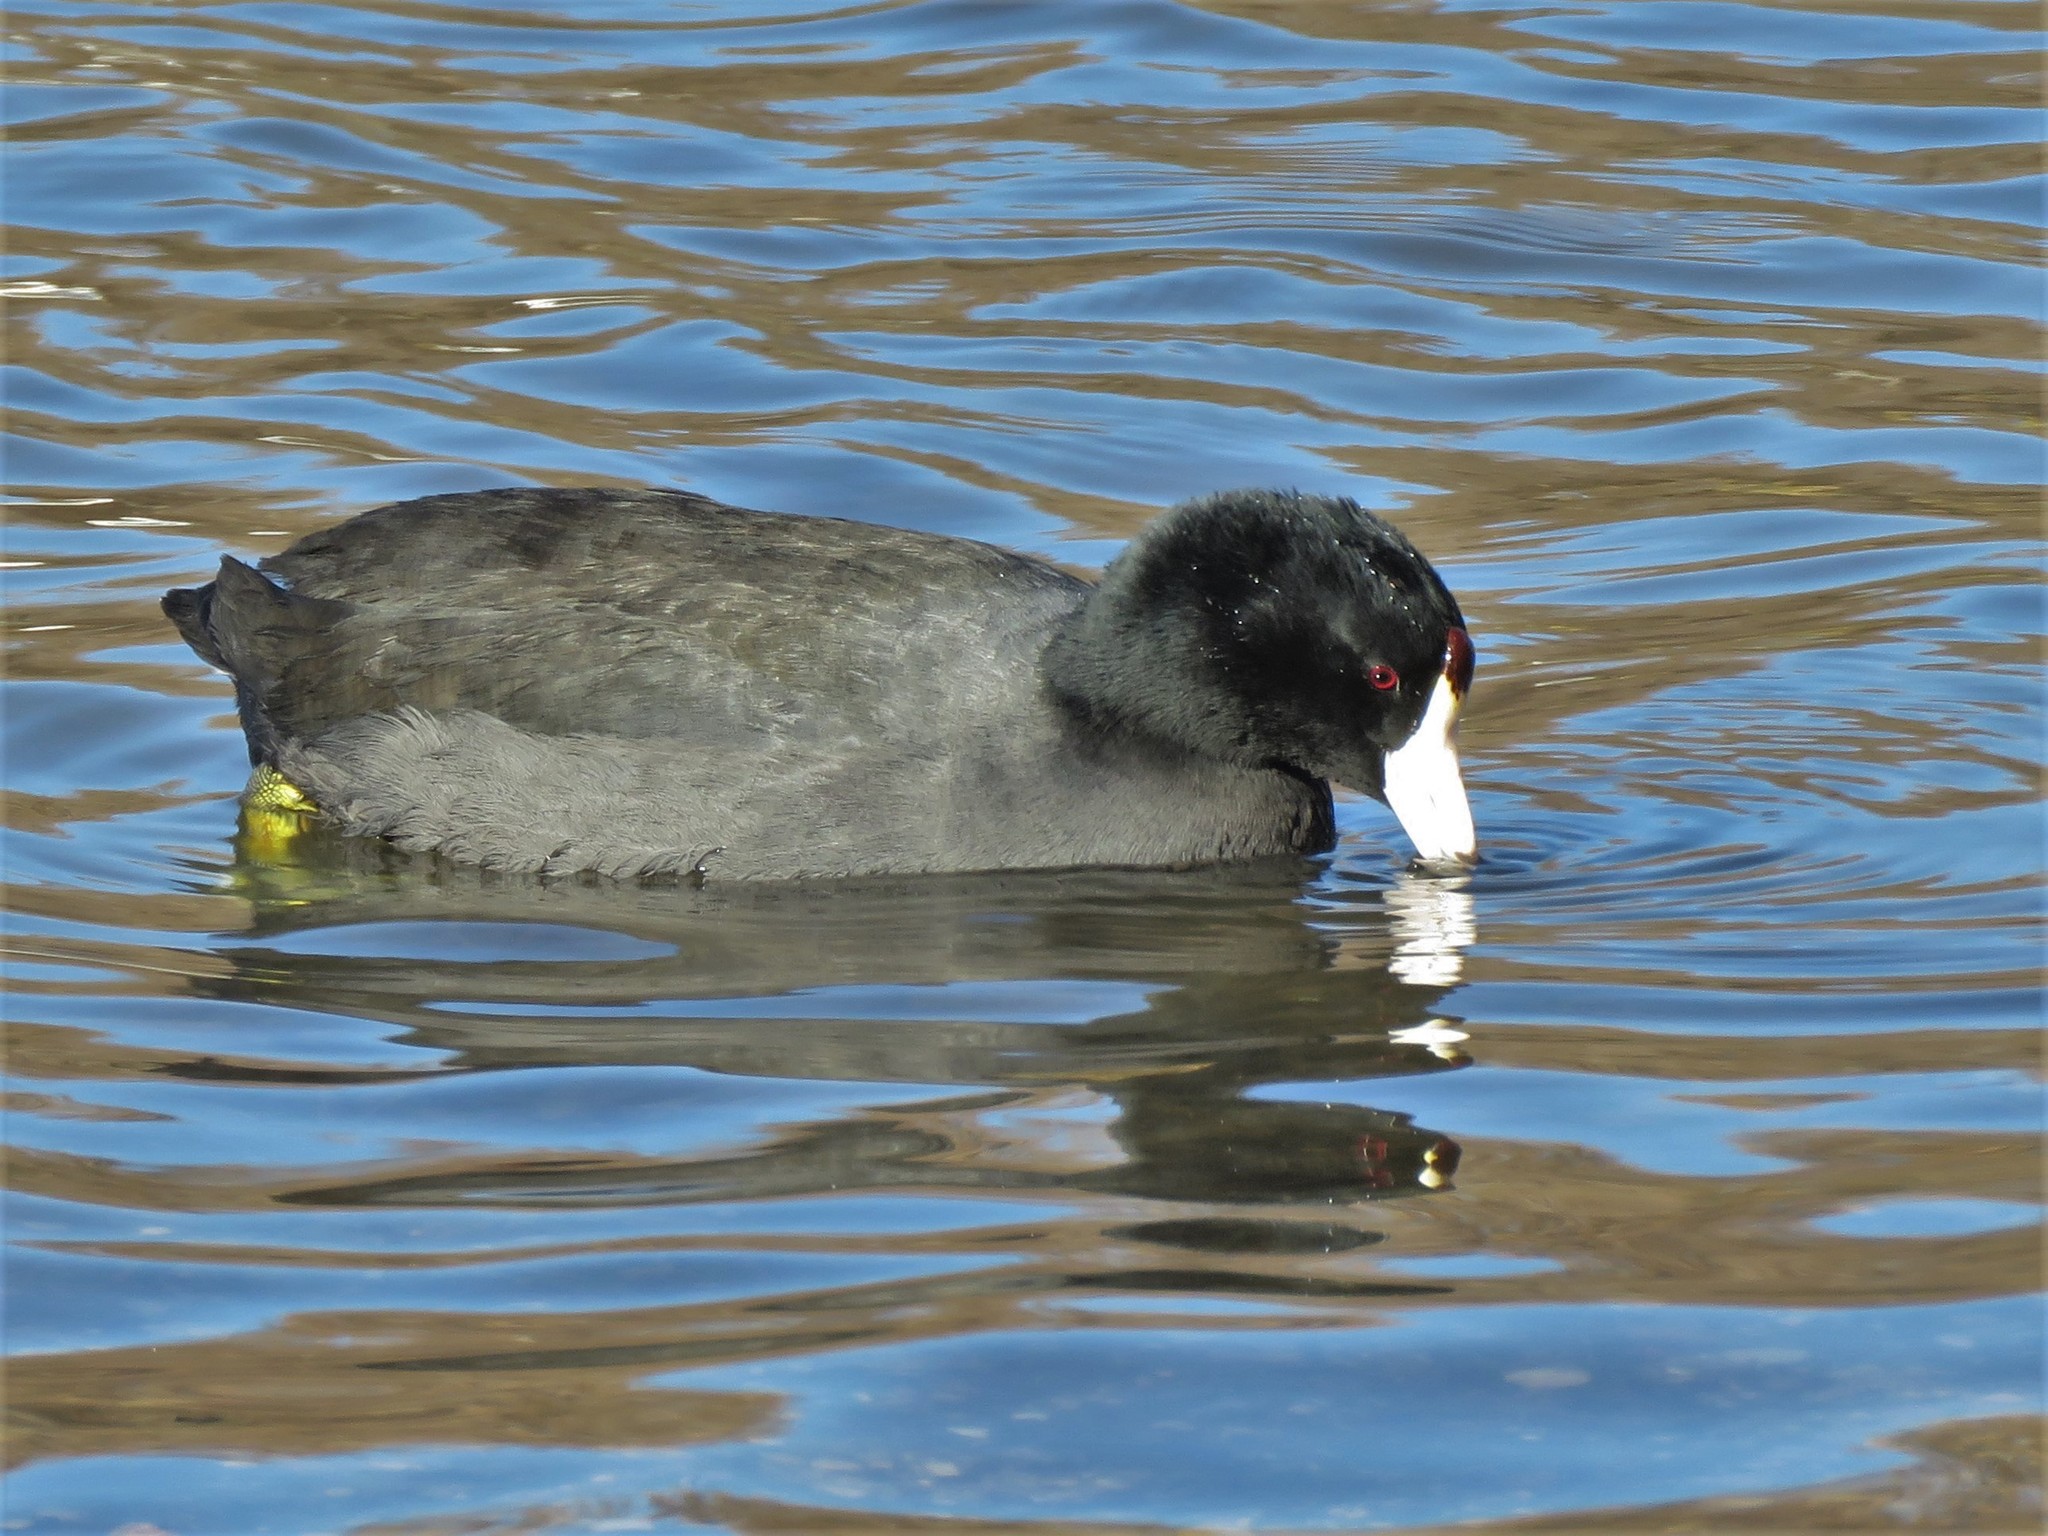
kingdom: Animalia
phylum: Chordata
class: Aves
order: Gruiformes
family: Rallidae
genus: Fulica
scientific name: Fulica americana
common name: American coot
